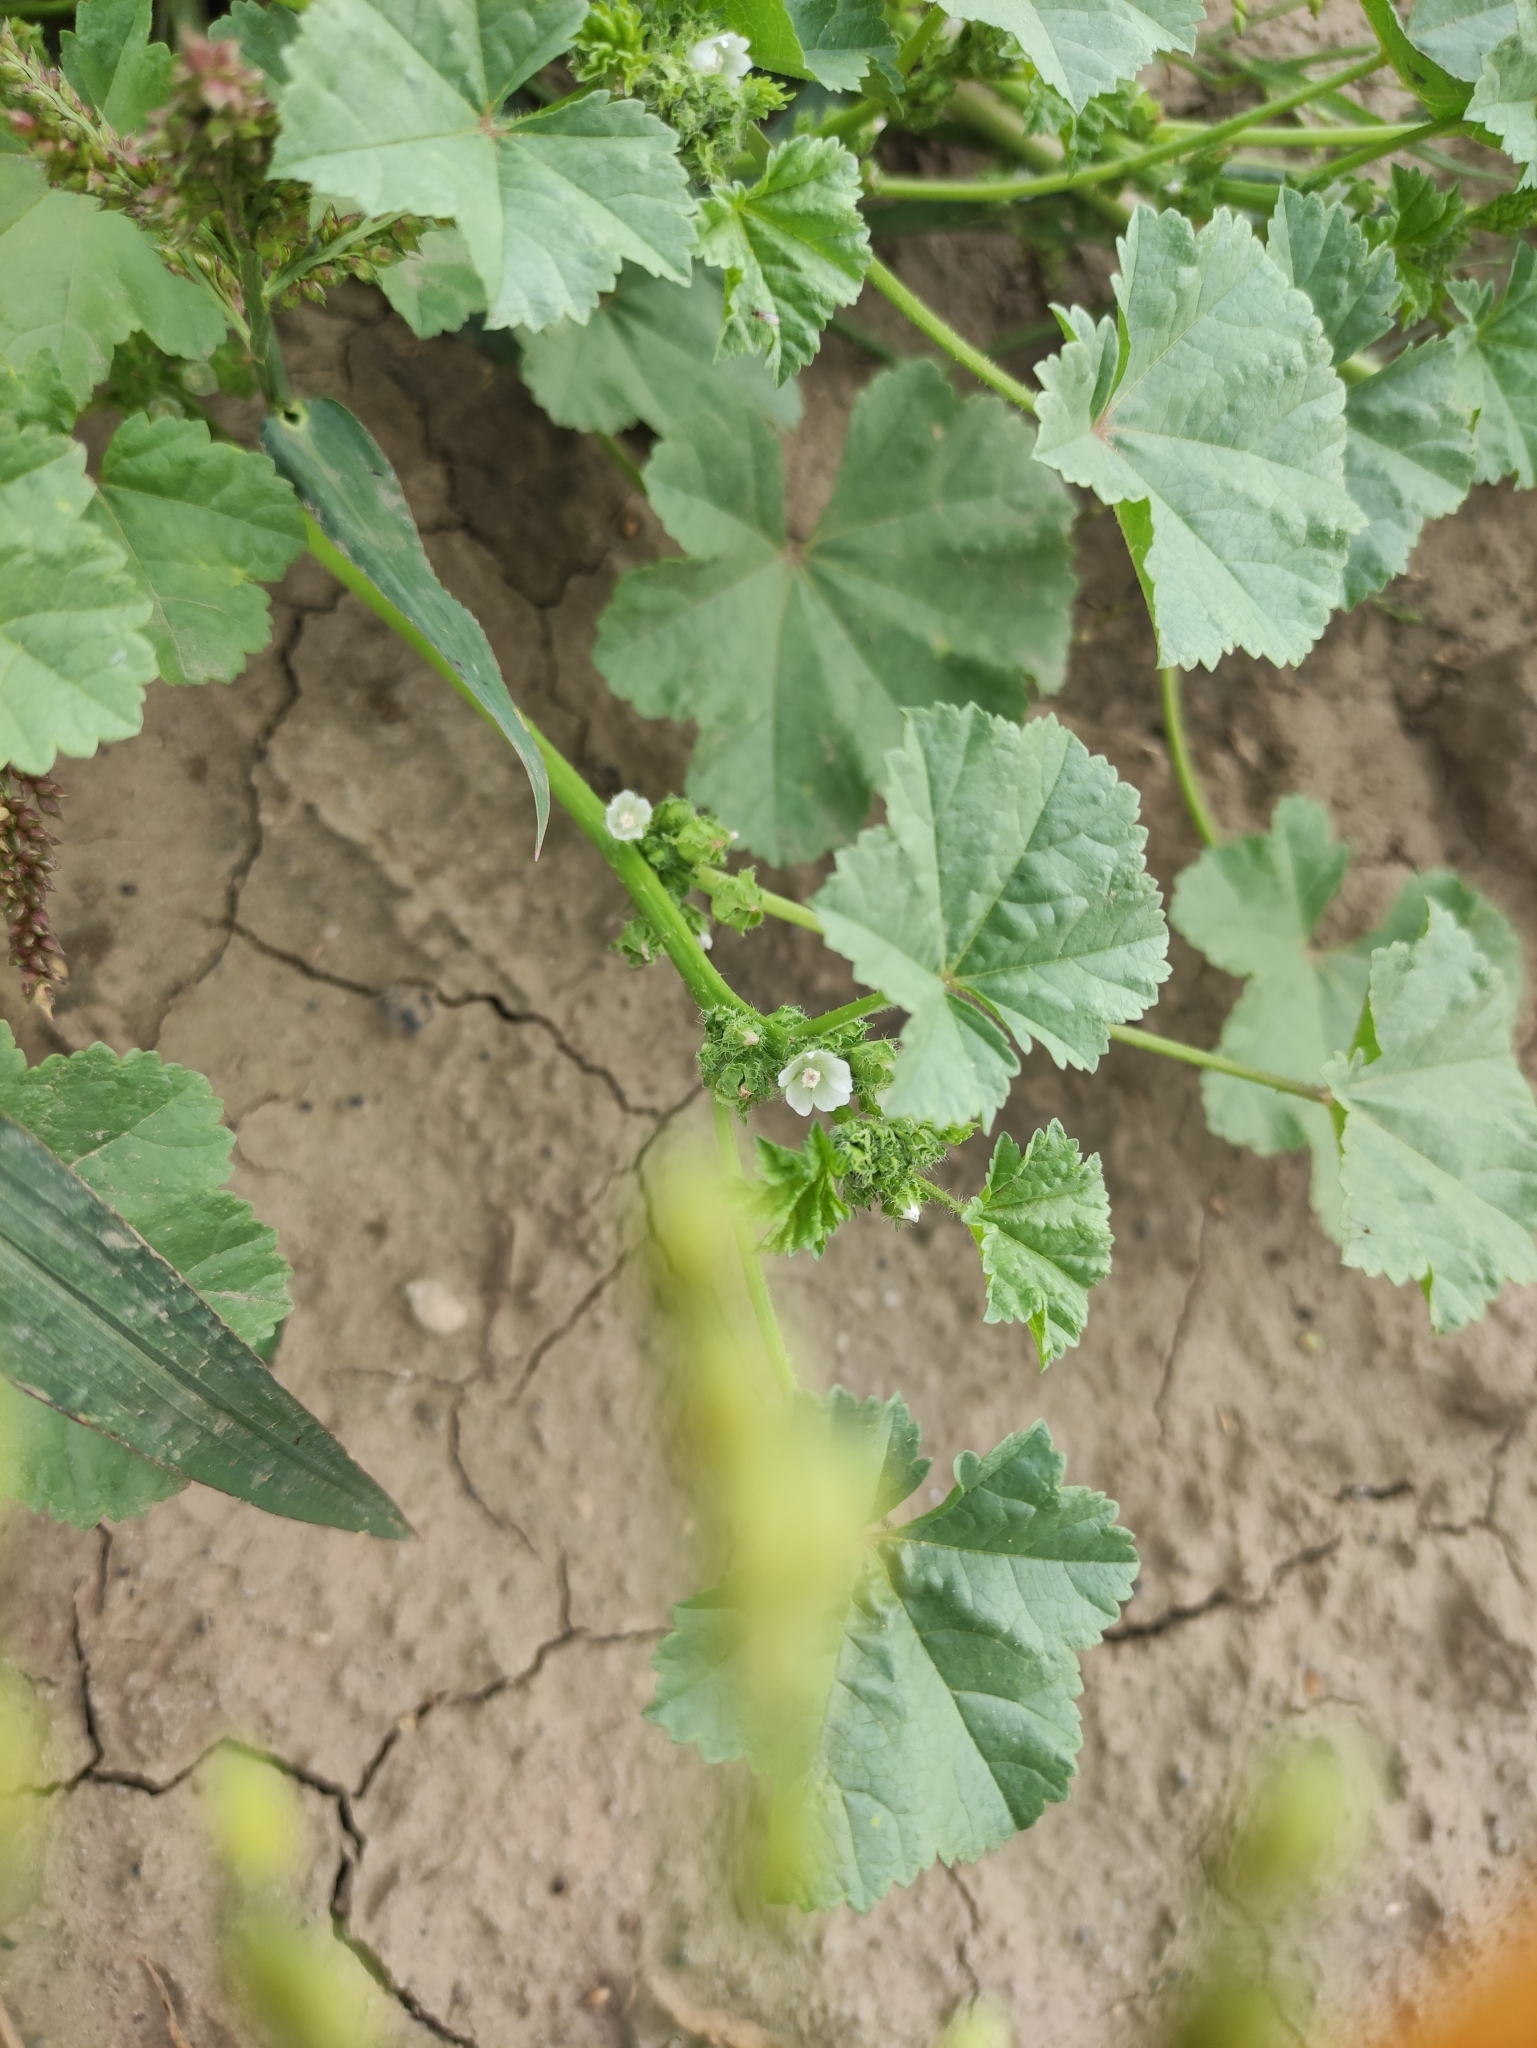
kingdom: Plantae
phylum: Tracheophyta
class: Magnoliopsida
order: Malvales
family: Malvaceae
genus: Malva
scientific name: Malva pusilla
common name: Small mallow
